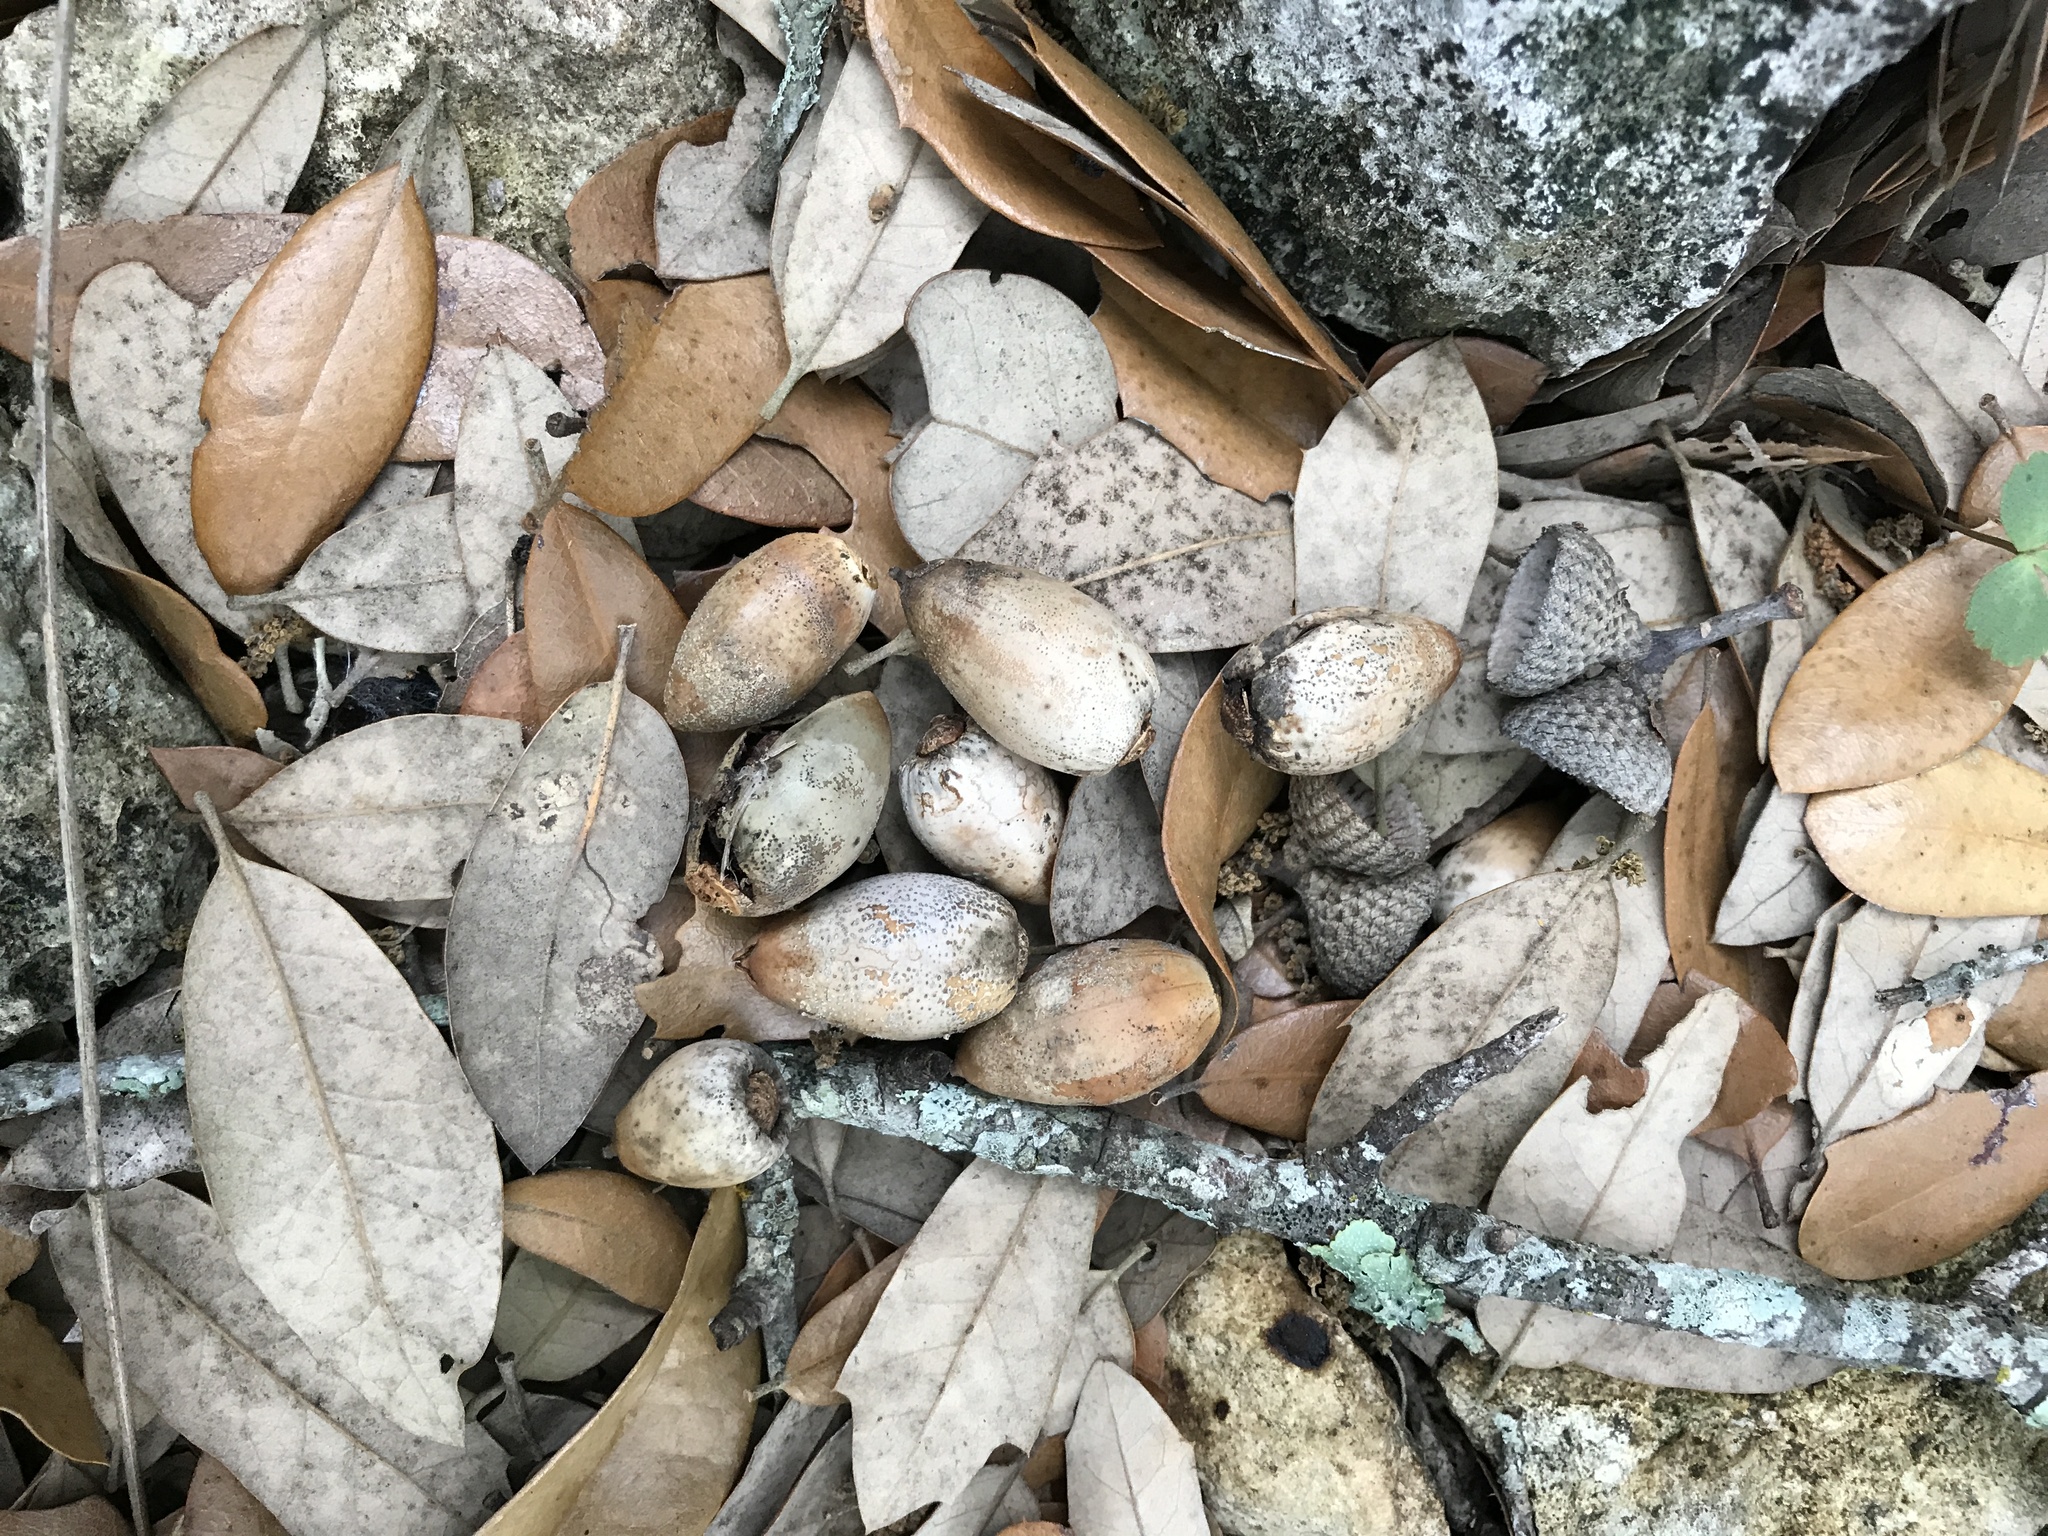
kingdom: Plantae
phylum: Tracheophyta
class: Magnoliopsida
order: Fagales
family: Fagaceae
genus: Quercus
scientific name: Quercus fusiformis
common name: Texas live oak
